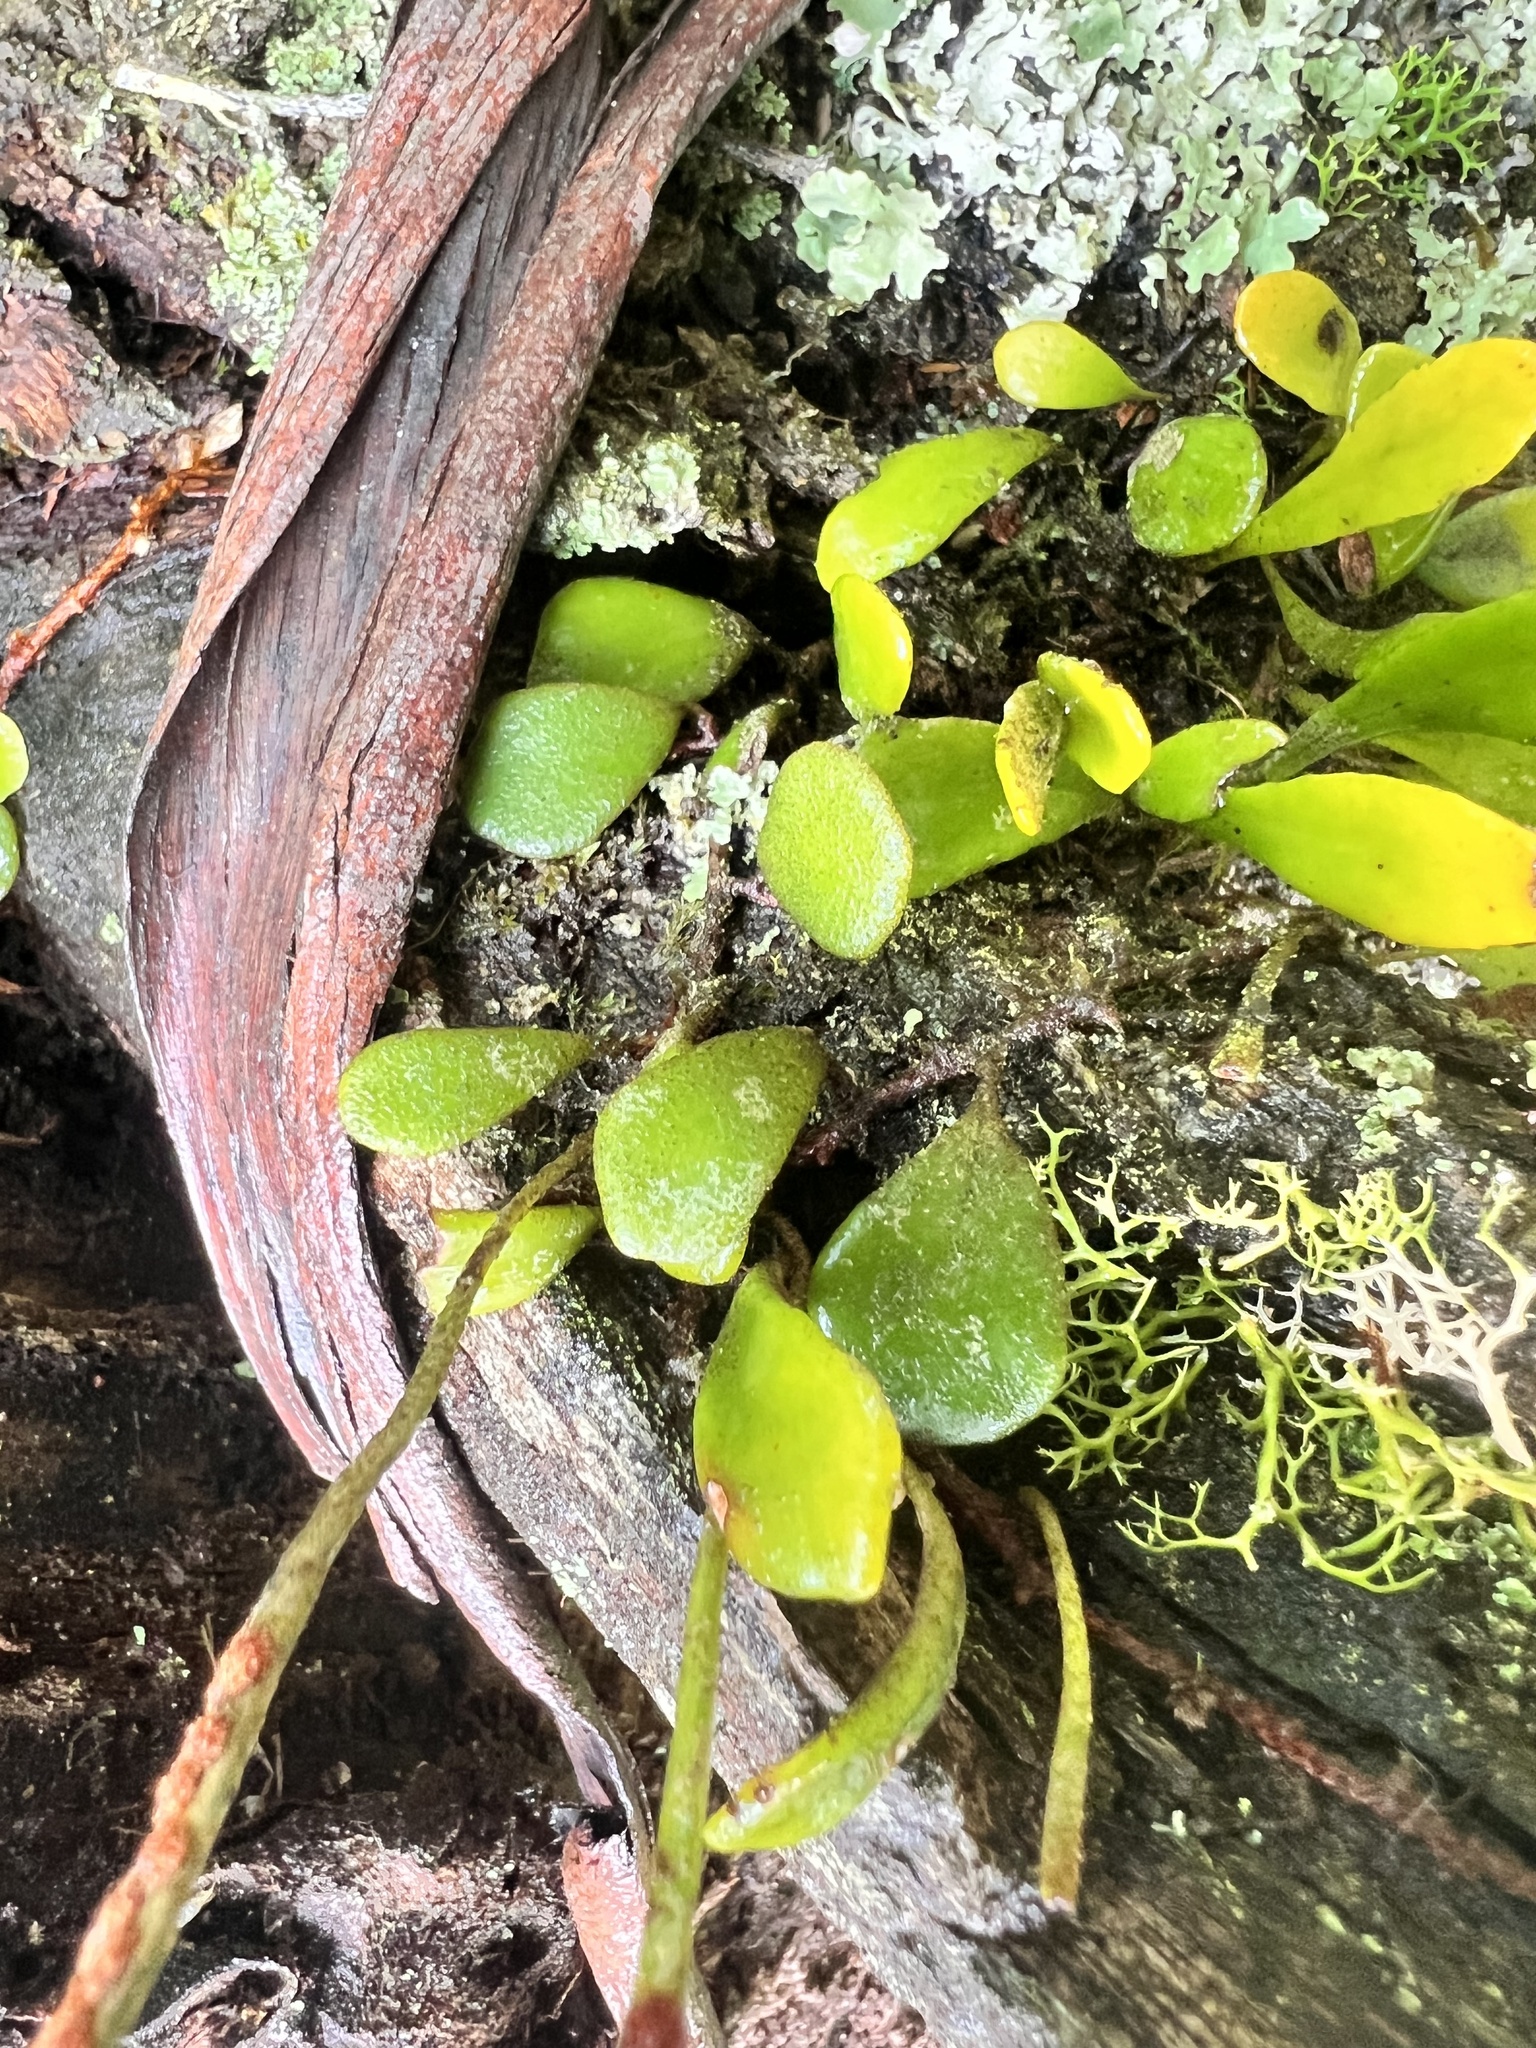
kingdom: Plantae
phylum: Tracheophyta
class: Polypodiopsida
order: Polypodiales
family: Polypodiaceae
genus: Pyrrosia
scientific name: Pyrrosia rupestris
